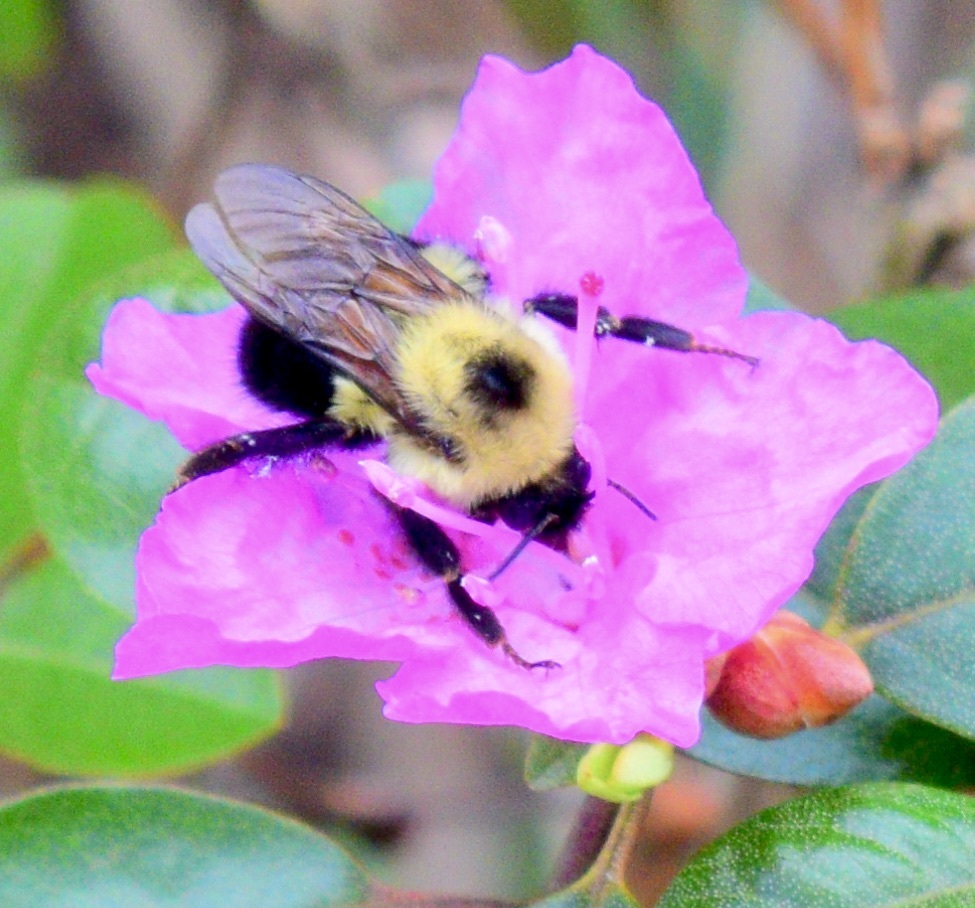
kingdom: Animalia
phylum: Arthropoda
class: Insecta
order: Hymenoptera
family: Apidae
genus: Bombus
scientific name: Bombus bimaculatus
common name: Two-spotted bumble bee
